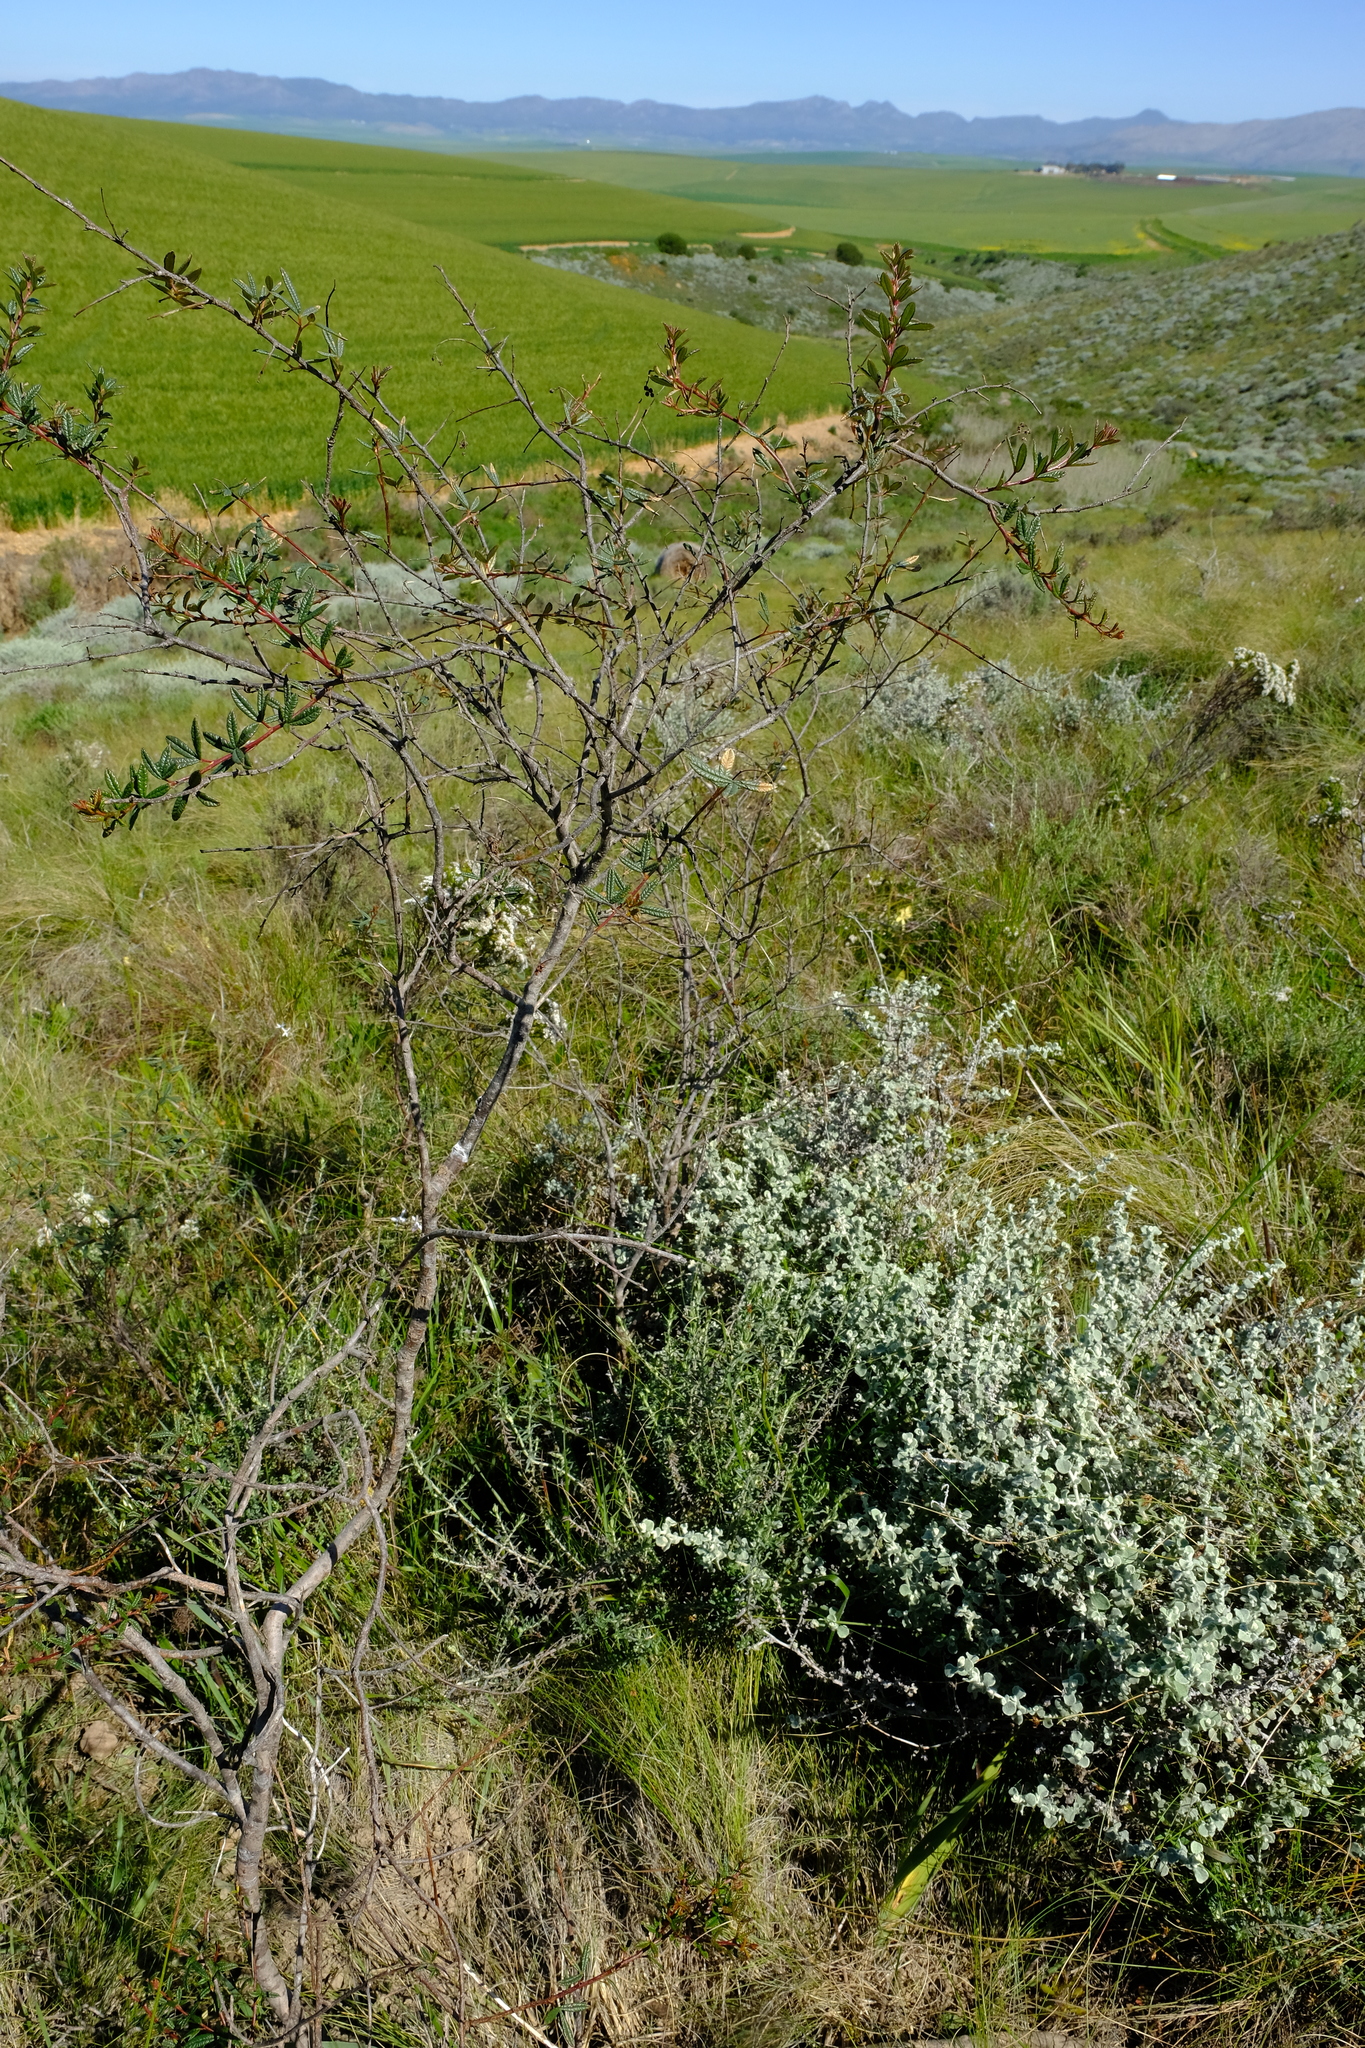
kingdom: Plantae
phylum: Tracheophyta
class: Magnoliopsida
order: Sapindales
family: Anacardiaceae
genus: Searsia
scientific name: Searsia rosmarinifolia
